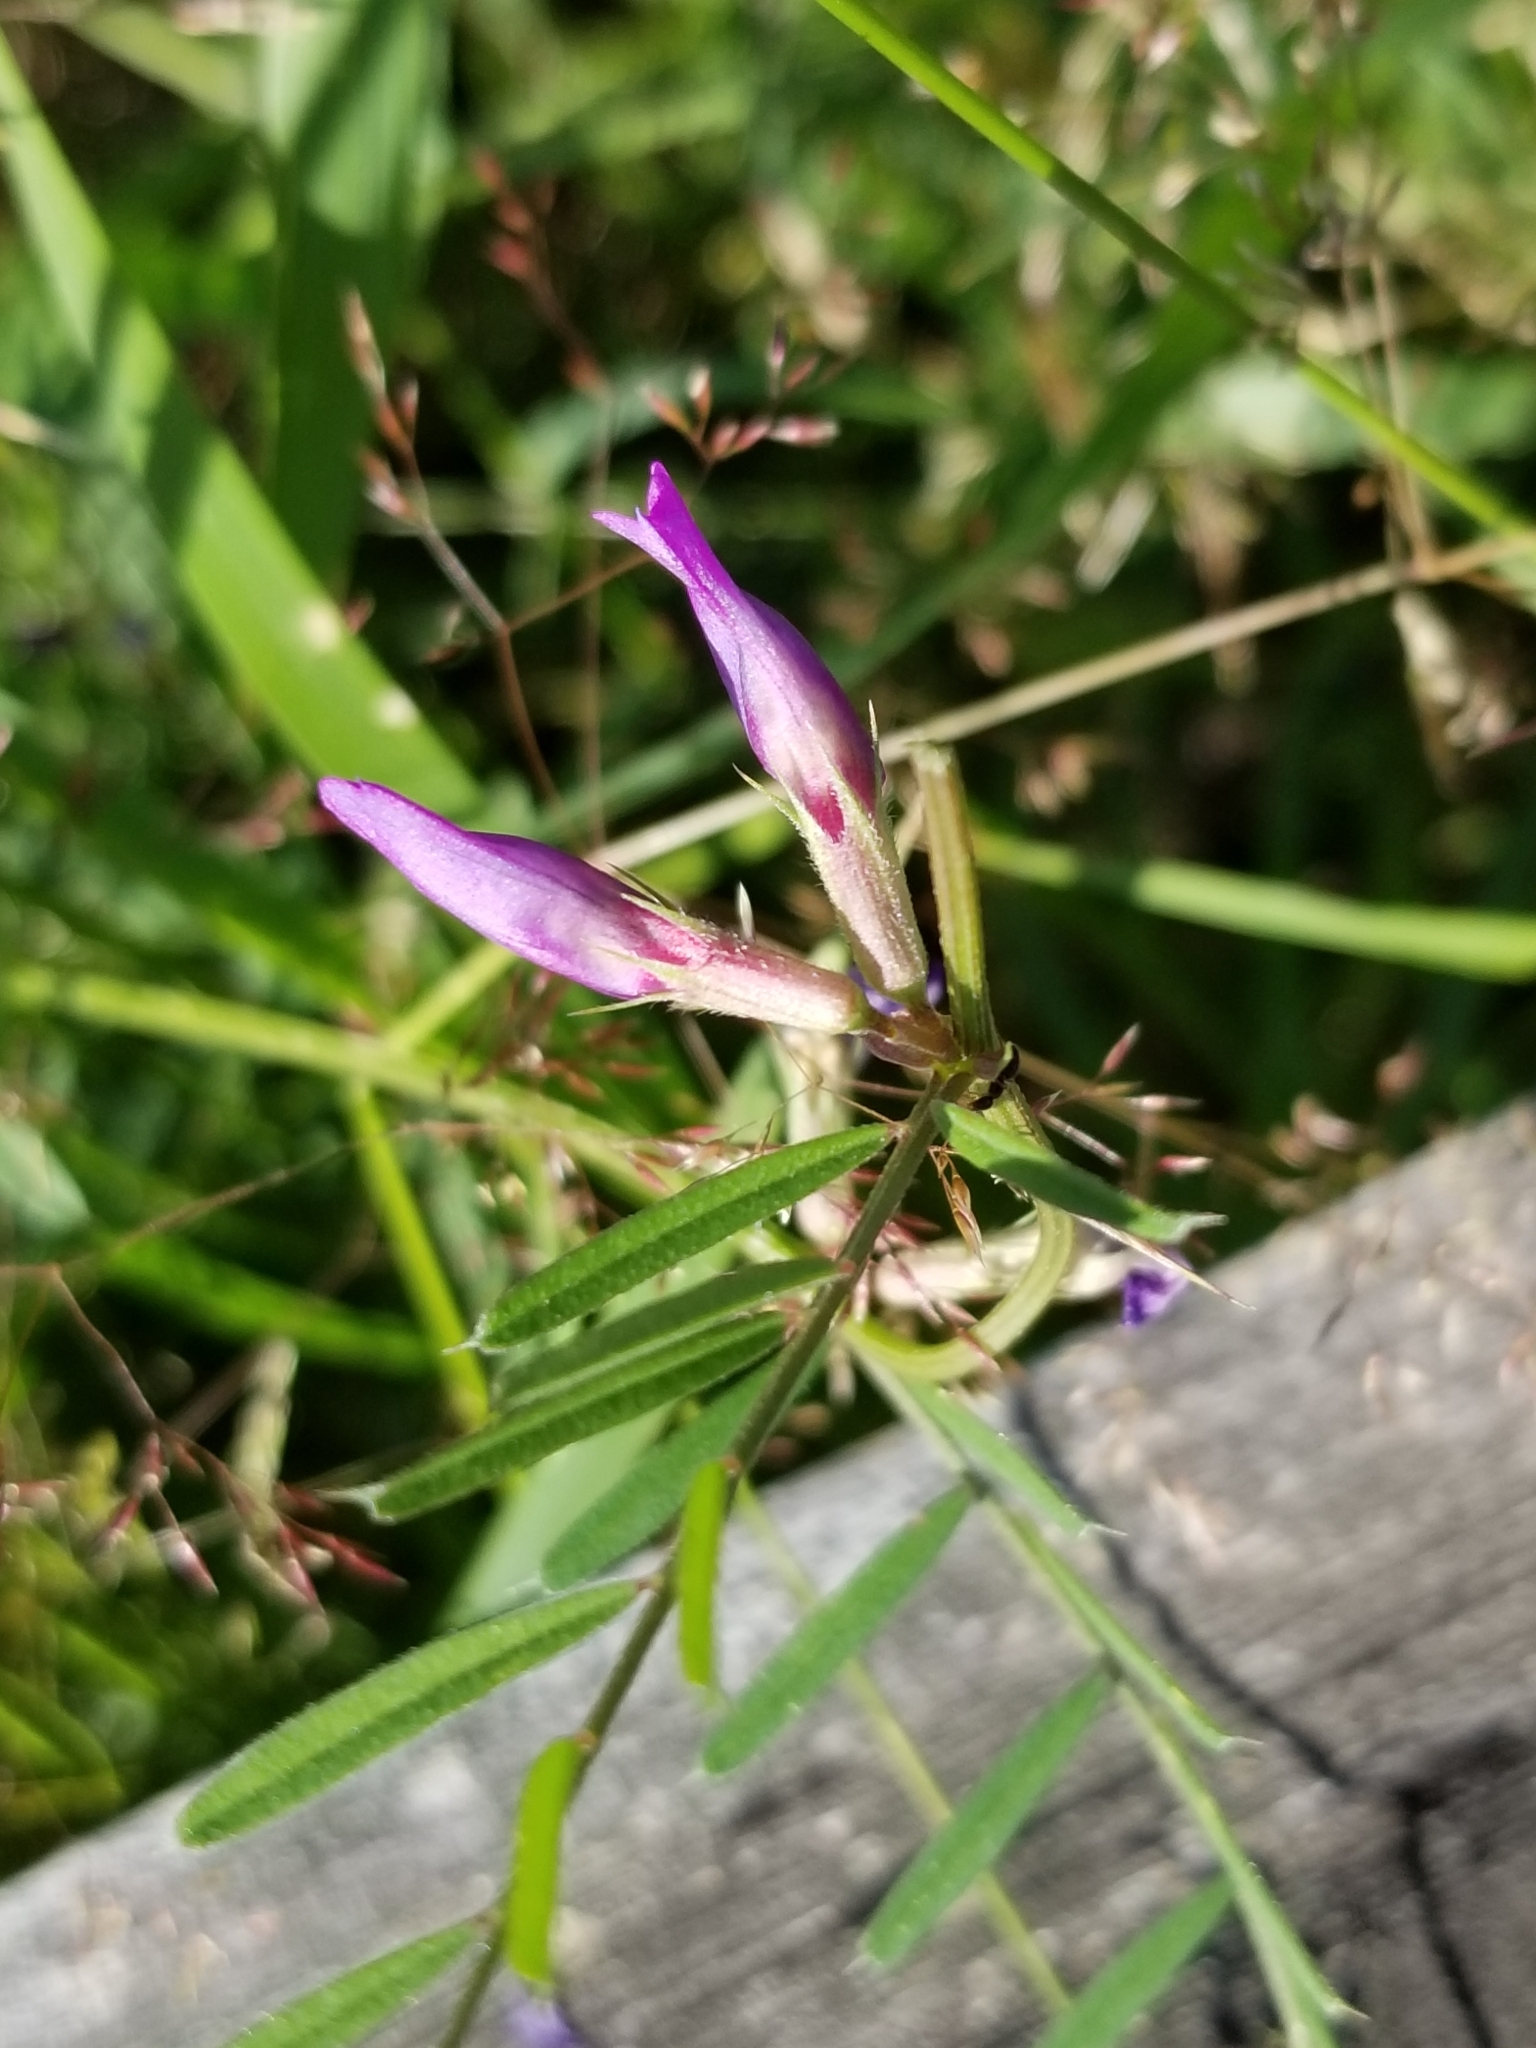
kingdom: Plantae
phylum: Tracheophyta
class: Magnoliopsida
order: Fabales
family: Fabaceae
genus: Vicia
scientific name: Vicia sativa
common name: Garden vetch
